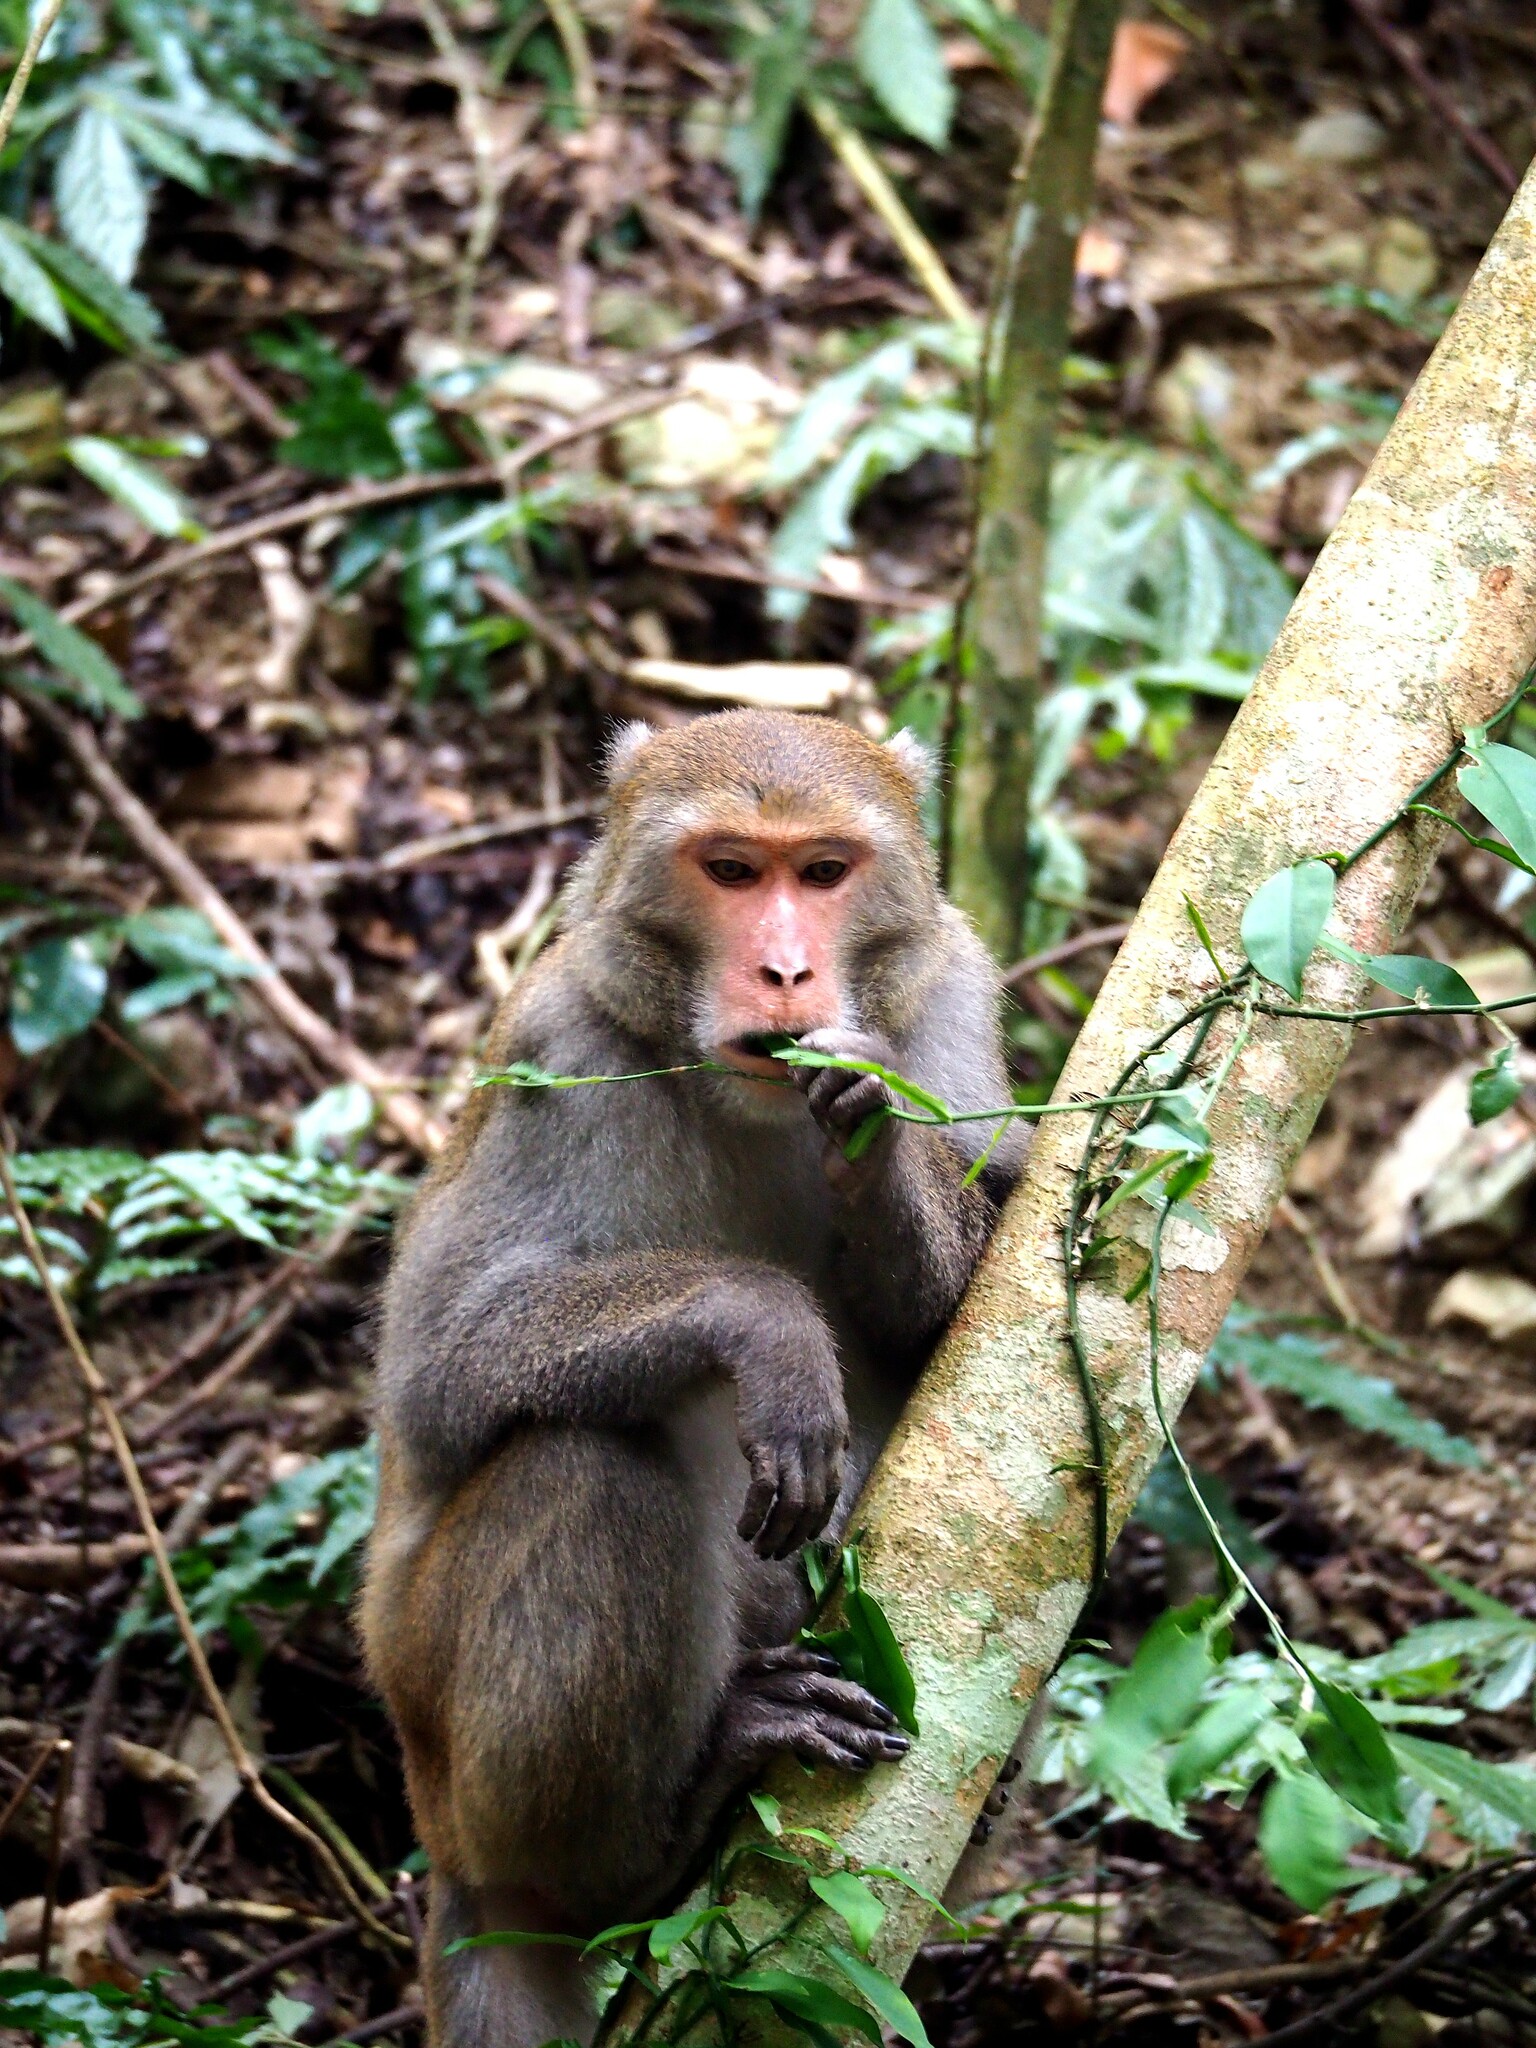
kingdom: Animalia
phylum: Chordata
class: Mammalia
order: Primates
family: Cercopithecidae
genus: Macaca
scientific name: Macaca cyclopis
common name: Formosan rock macaque
